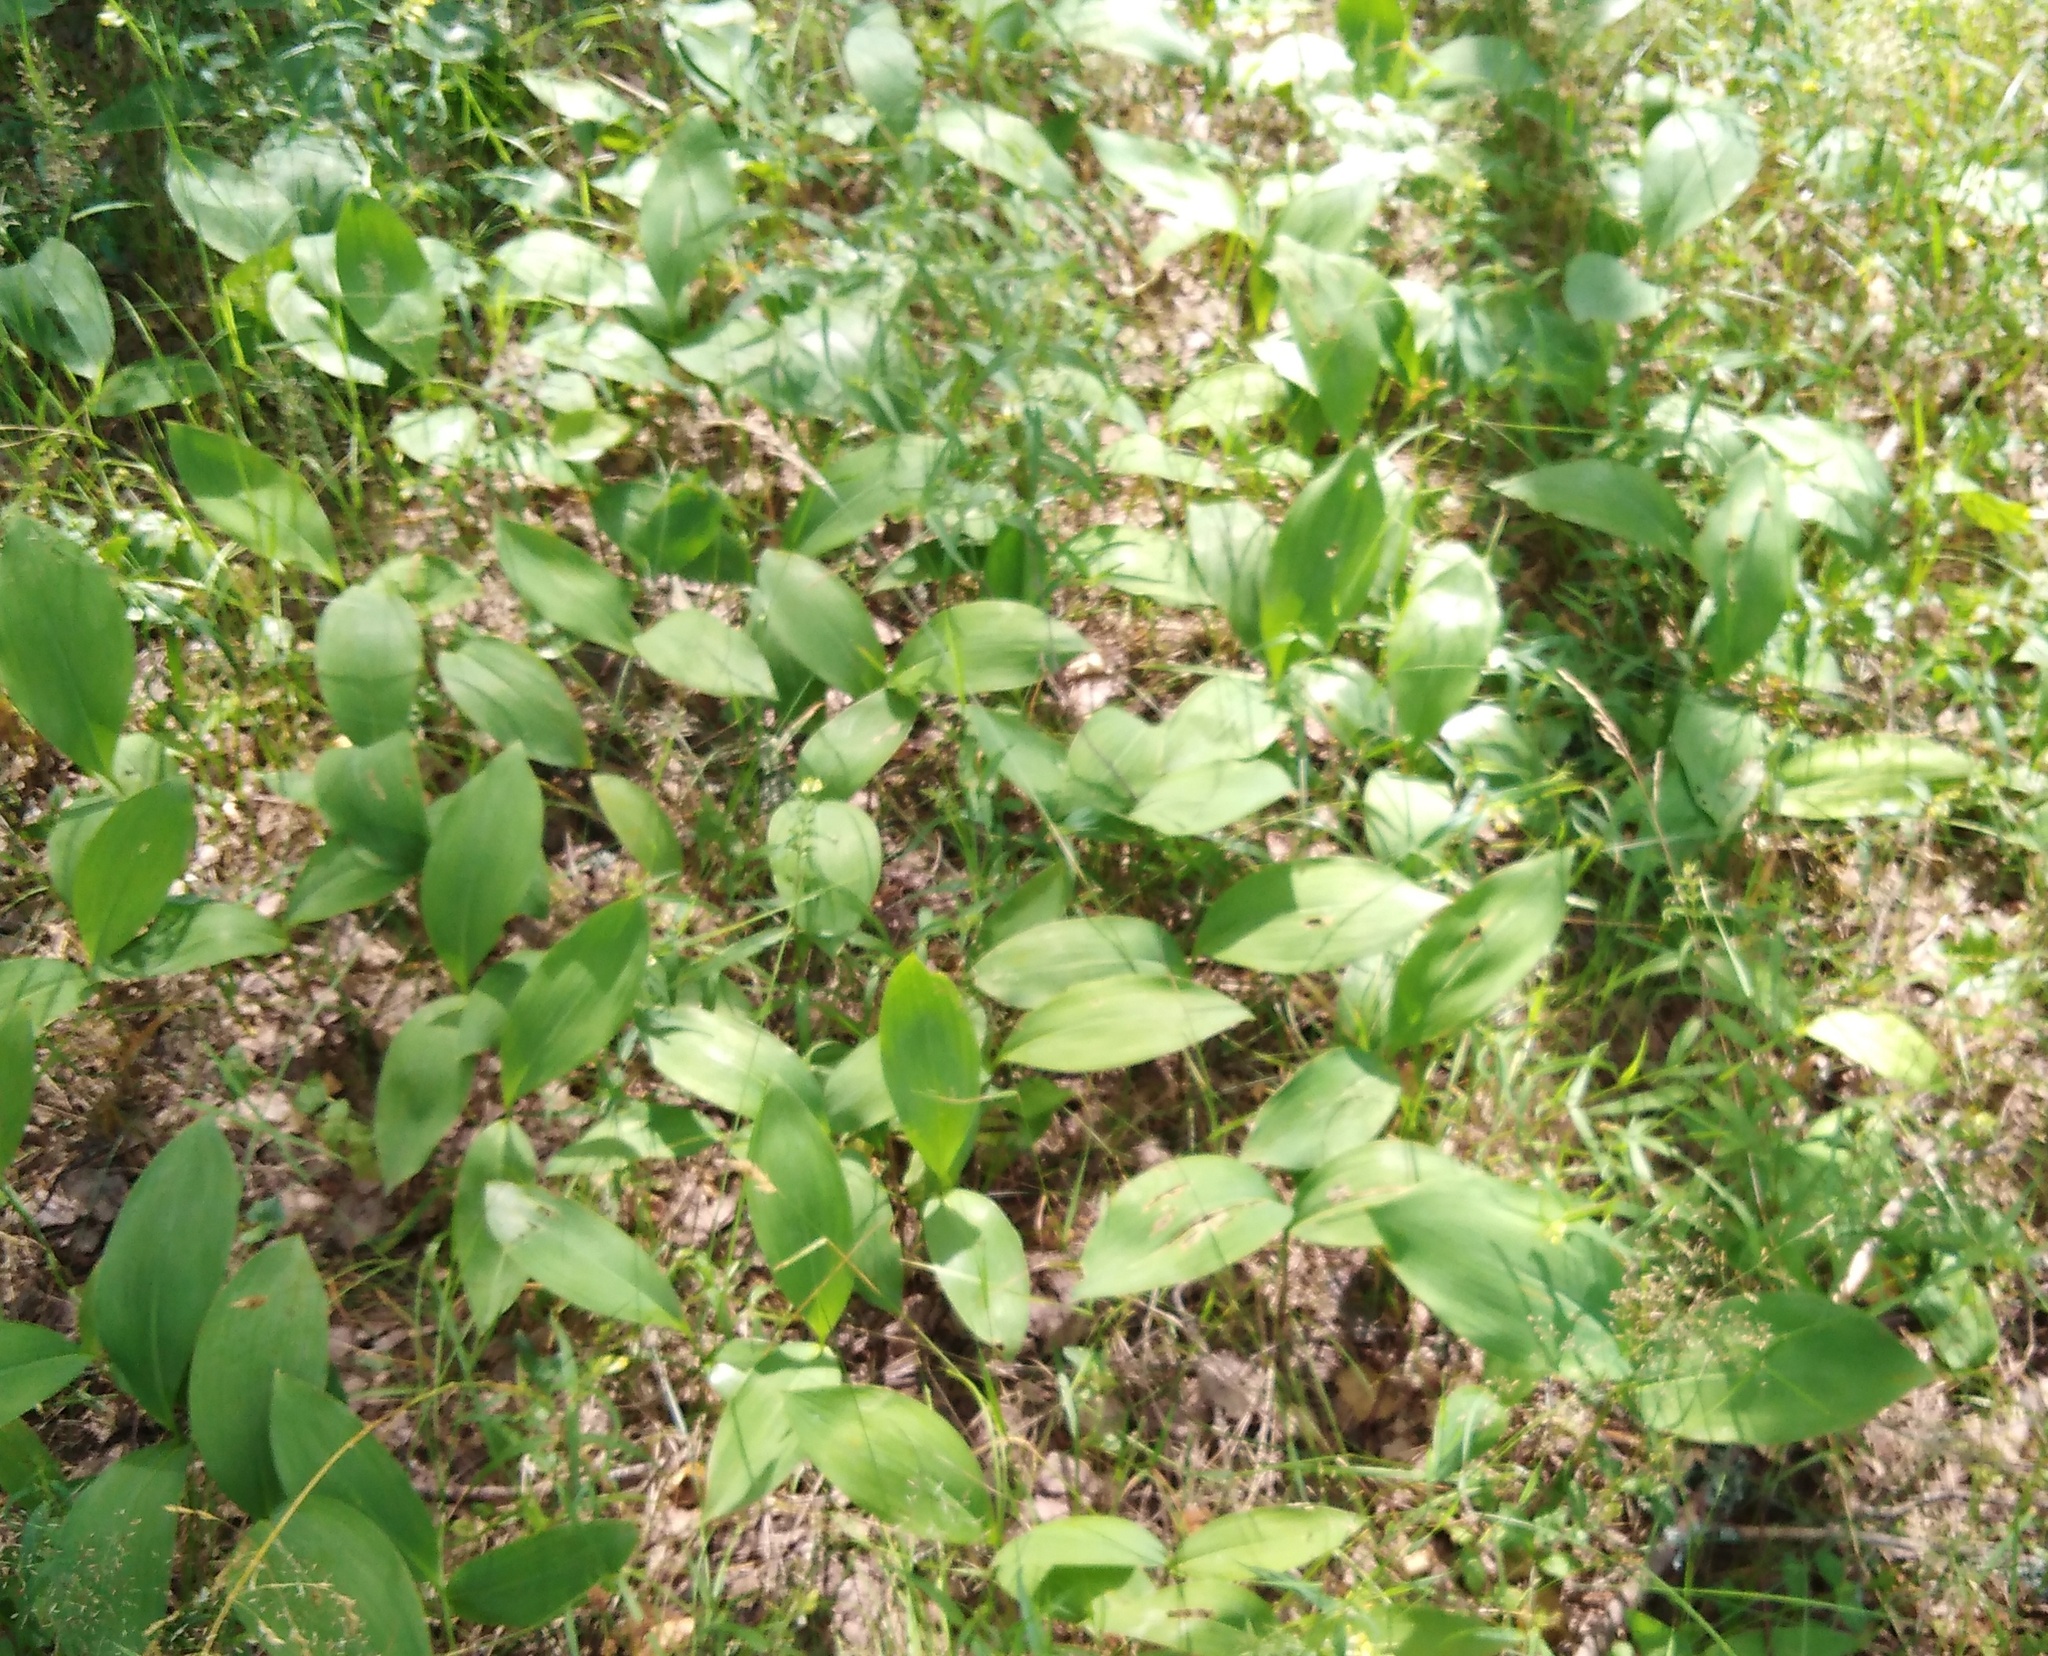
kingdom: Plantae
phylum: Tracheophyta
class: Liliopsida
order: Asparagales
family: Asparagaceae
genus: Convallaria
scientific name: Convallaria majalis
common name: Lily-of-the-valley
